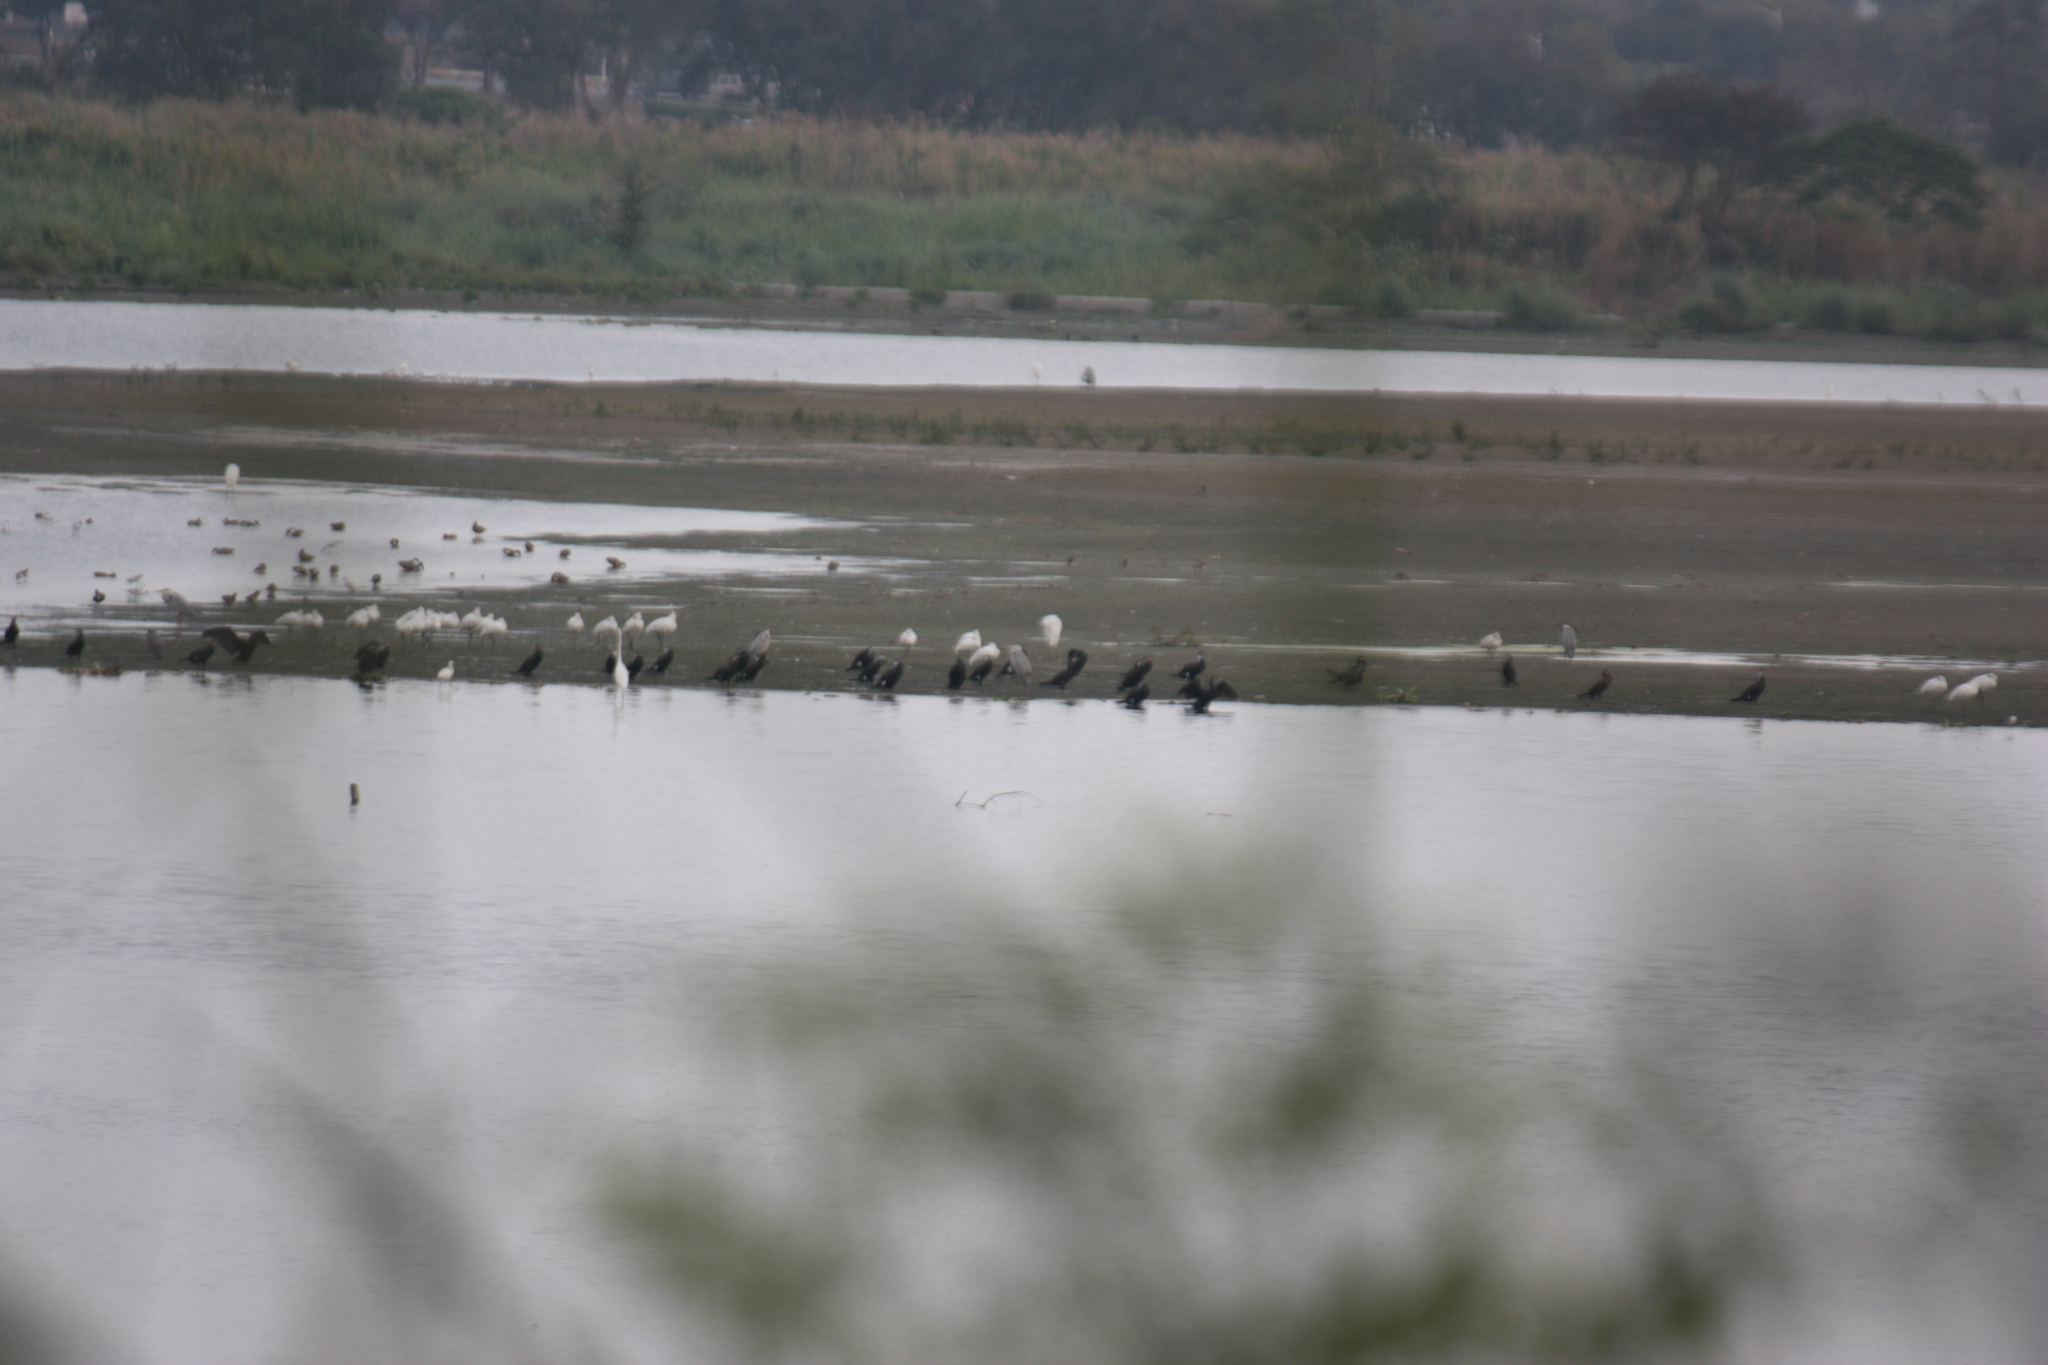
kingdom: Animalia
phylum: Chordata
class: Aves
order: Pelecaniformes
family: Ardeidae
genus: Ardea
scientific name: Ardea cinerea
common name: Grey heron
